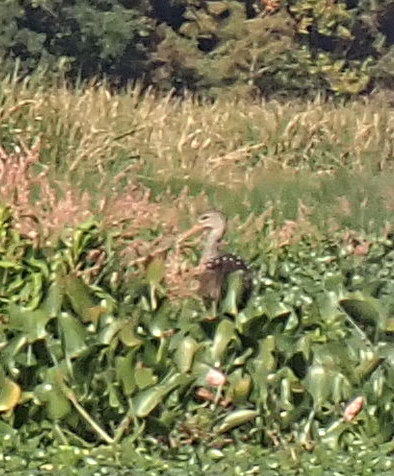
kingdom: Animalia
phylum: Chordata
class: Aves
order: Gruiformes
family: Aramidae
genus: Aramus
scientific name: Aramus guarauna
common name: Limpkin
